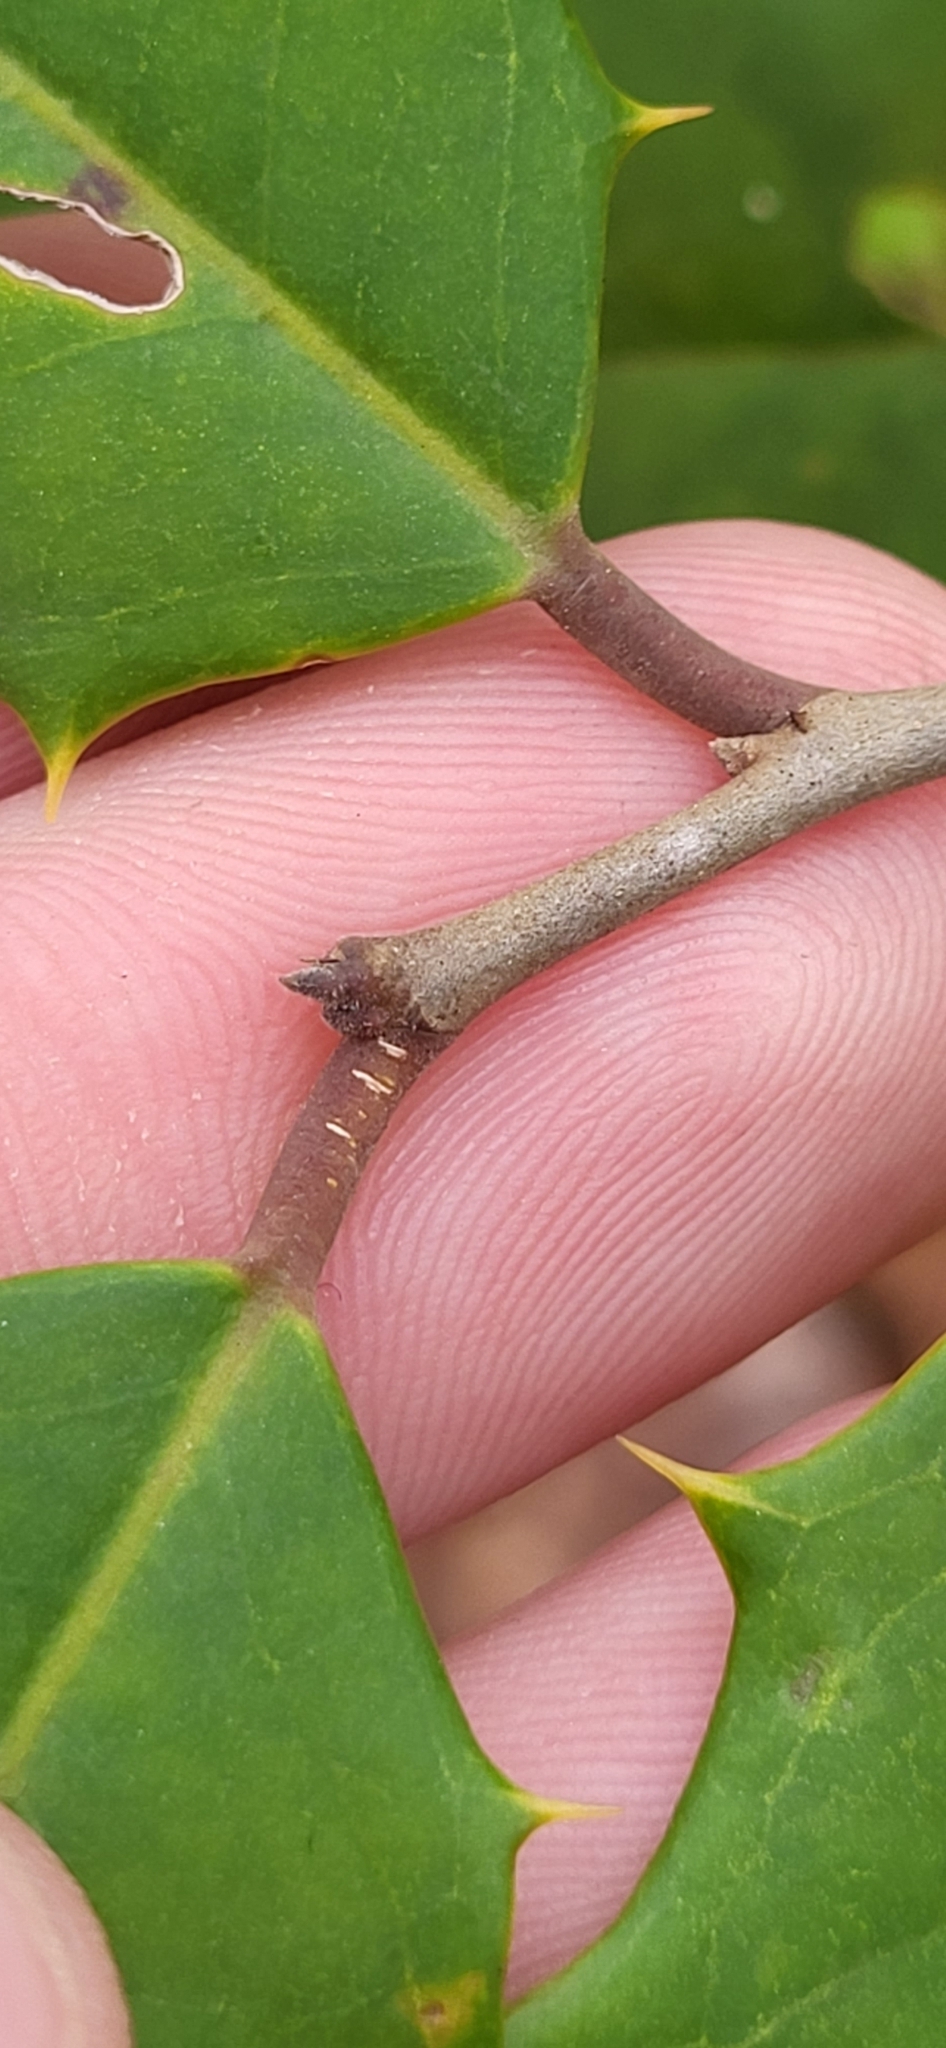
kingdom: Plantae
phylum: Tracheophyta
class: Magnoliopsida
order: Aquifoliales
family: Aquifoliaceae
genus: Ilex
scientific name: Ilex opaca
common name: American holly
